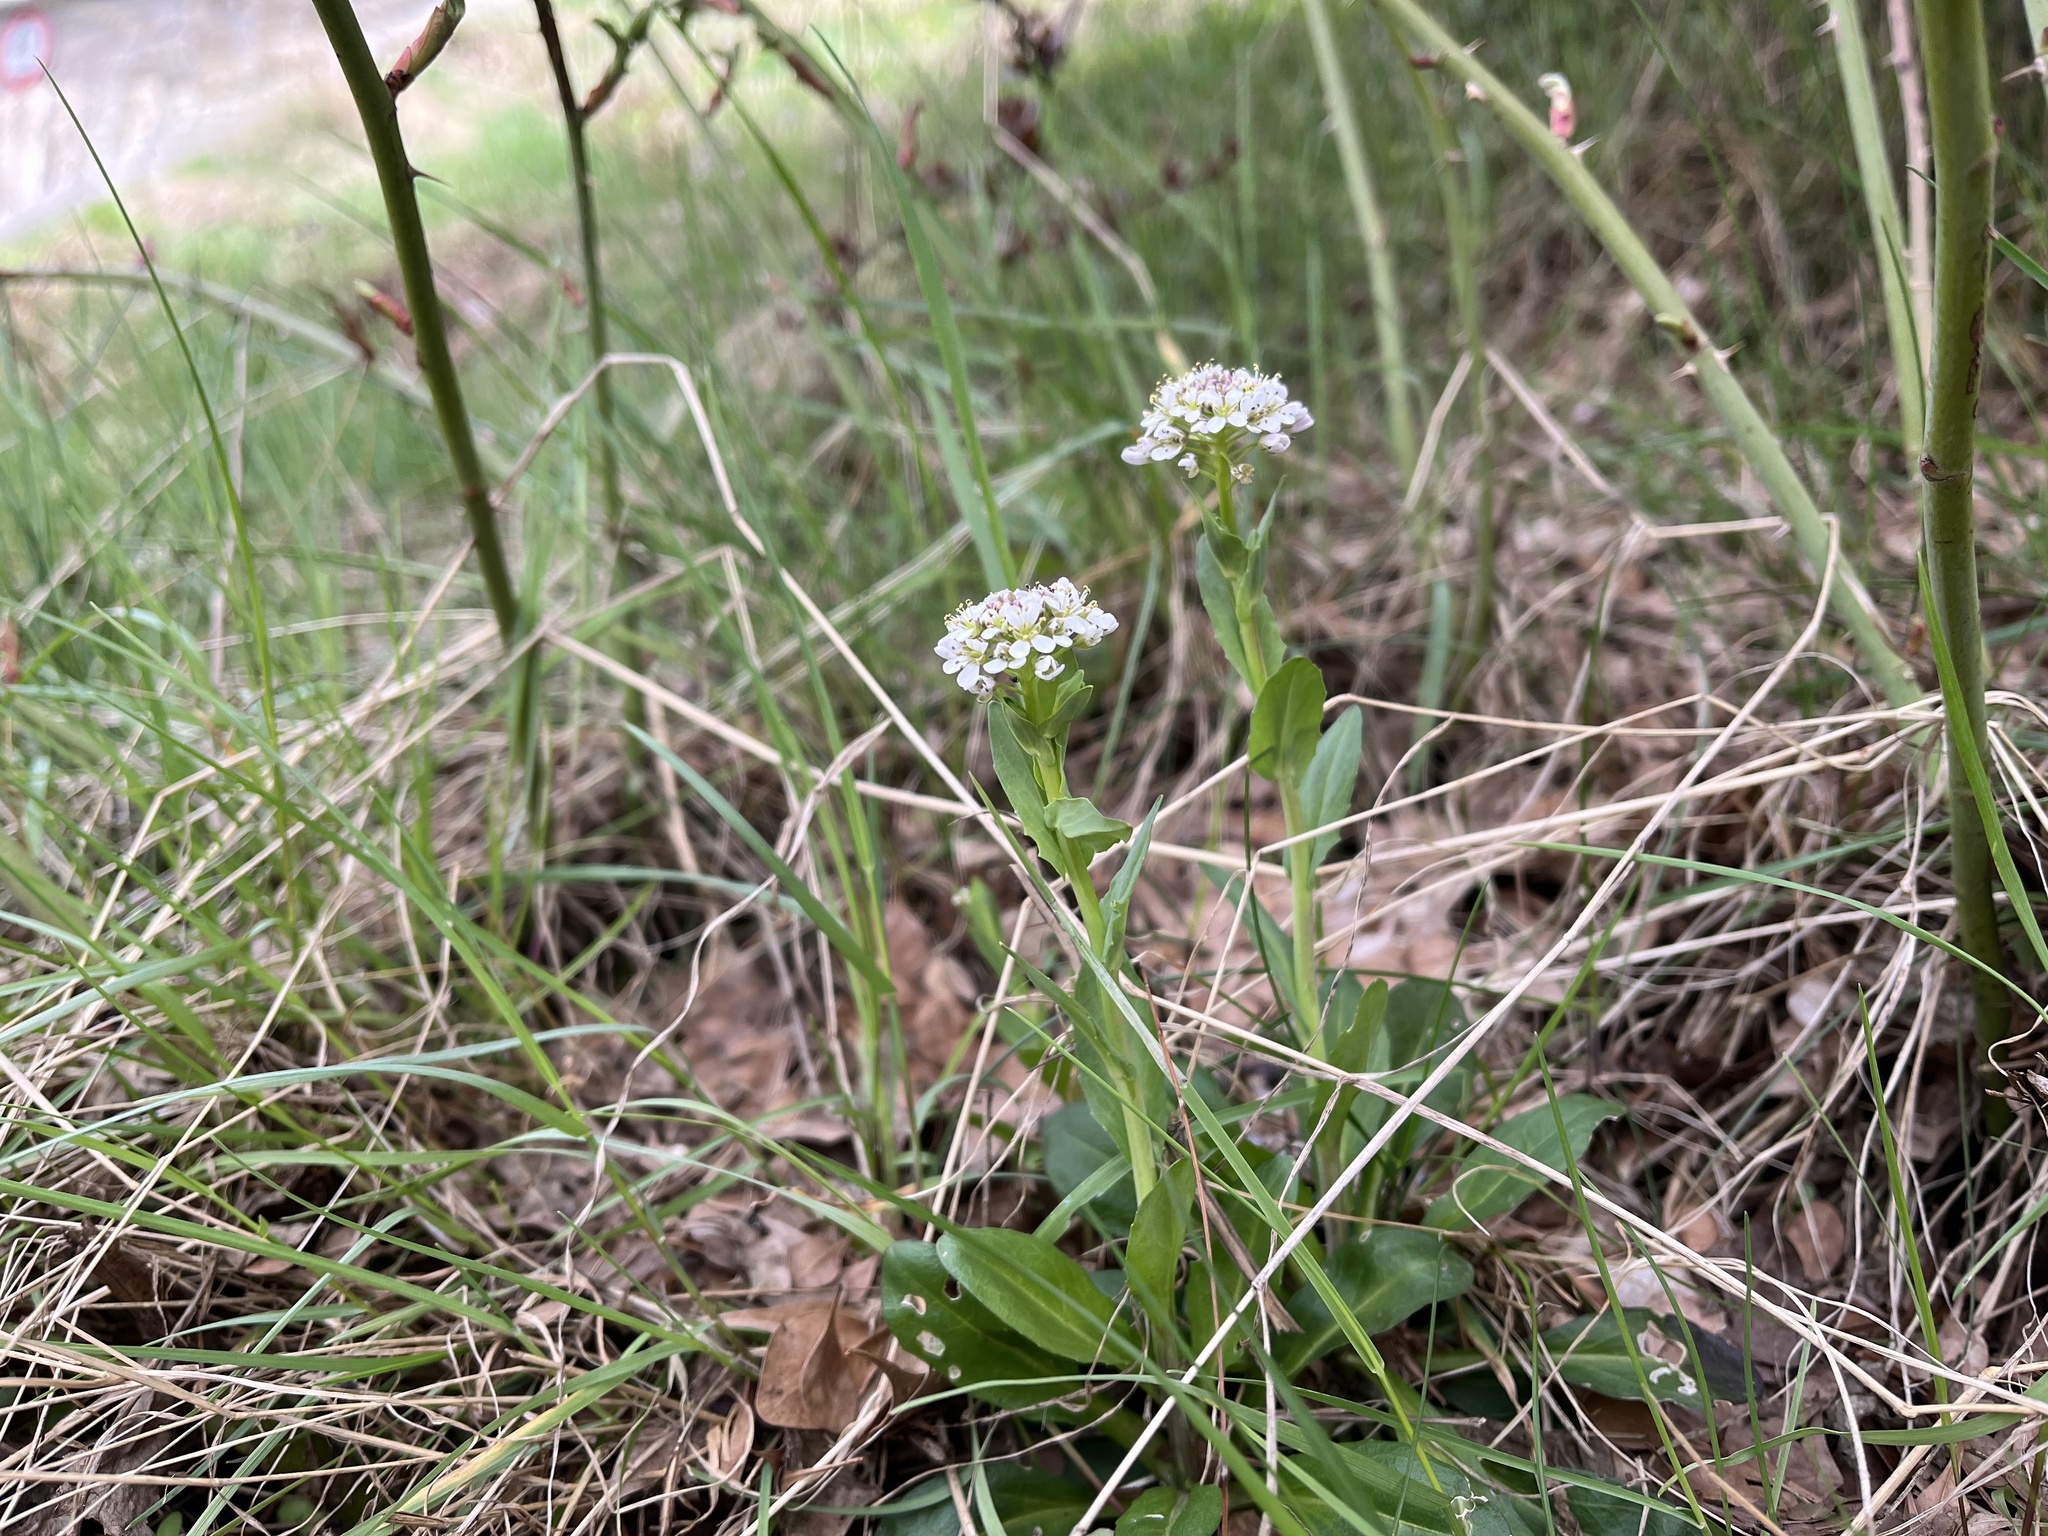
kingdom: Plantae
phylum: Tracheophyta
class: Magnoliopsida
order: Brassicales
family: Brassicaceae
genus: Noccaea
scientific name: Noccaea caerulescens
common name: Alpine pennycress
